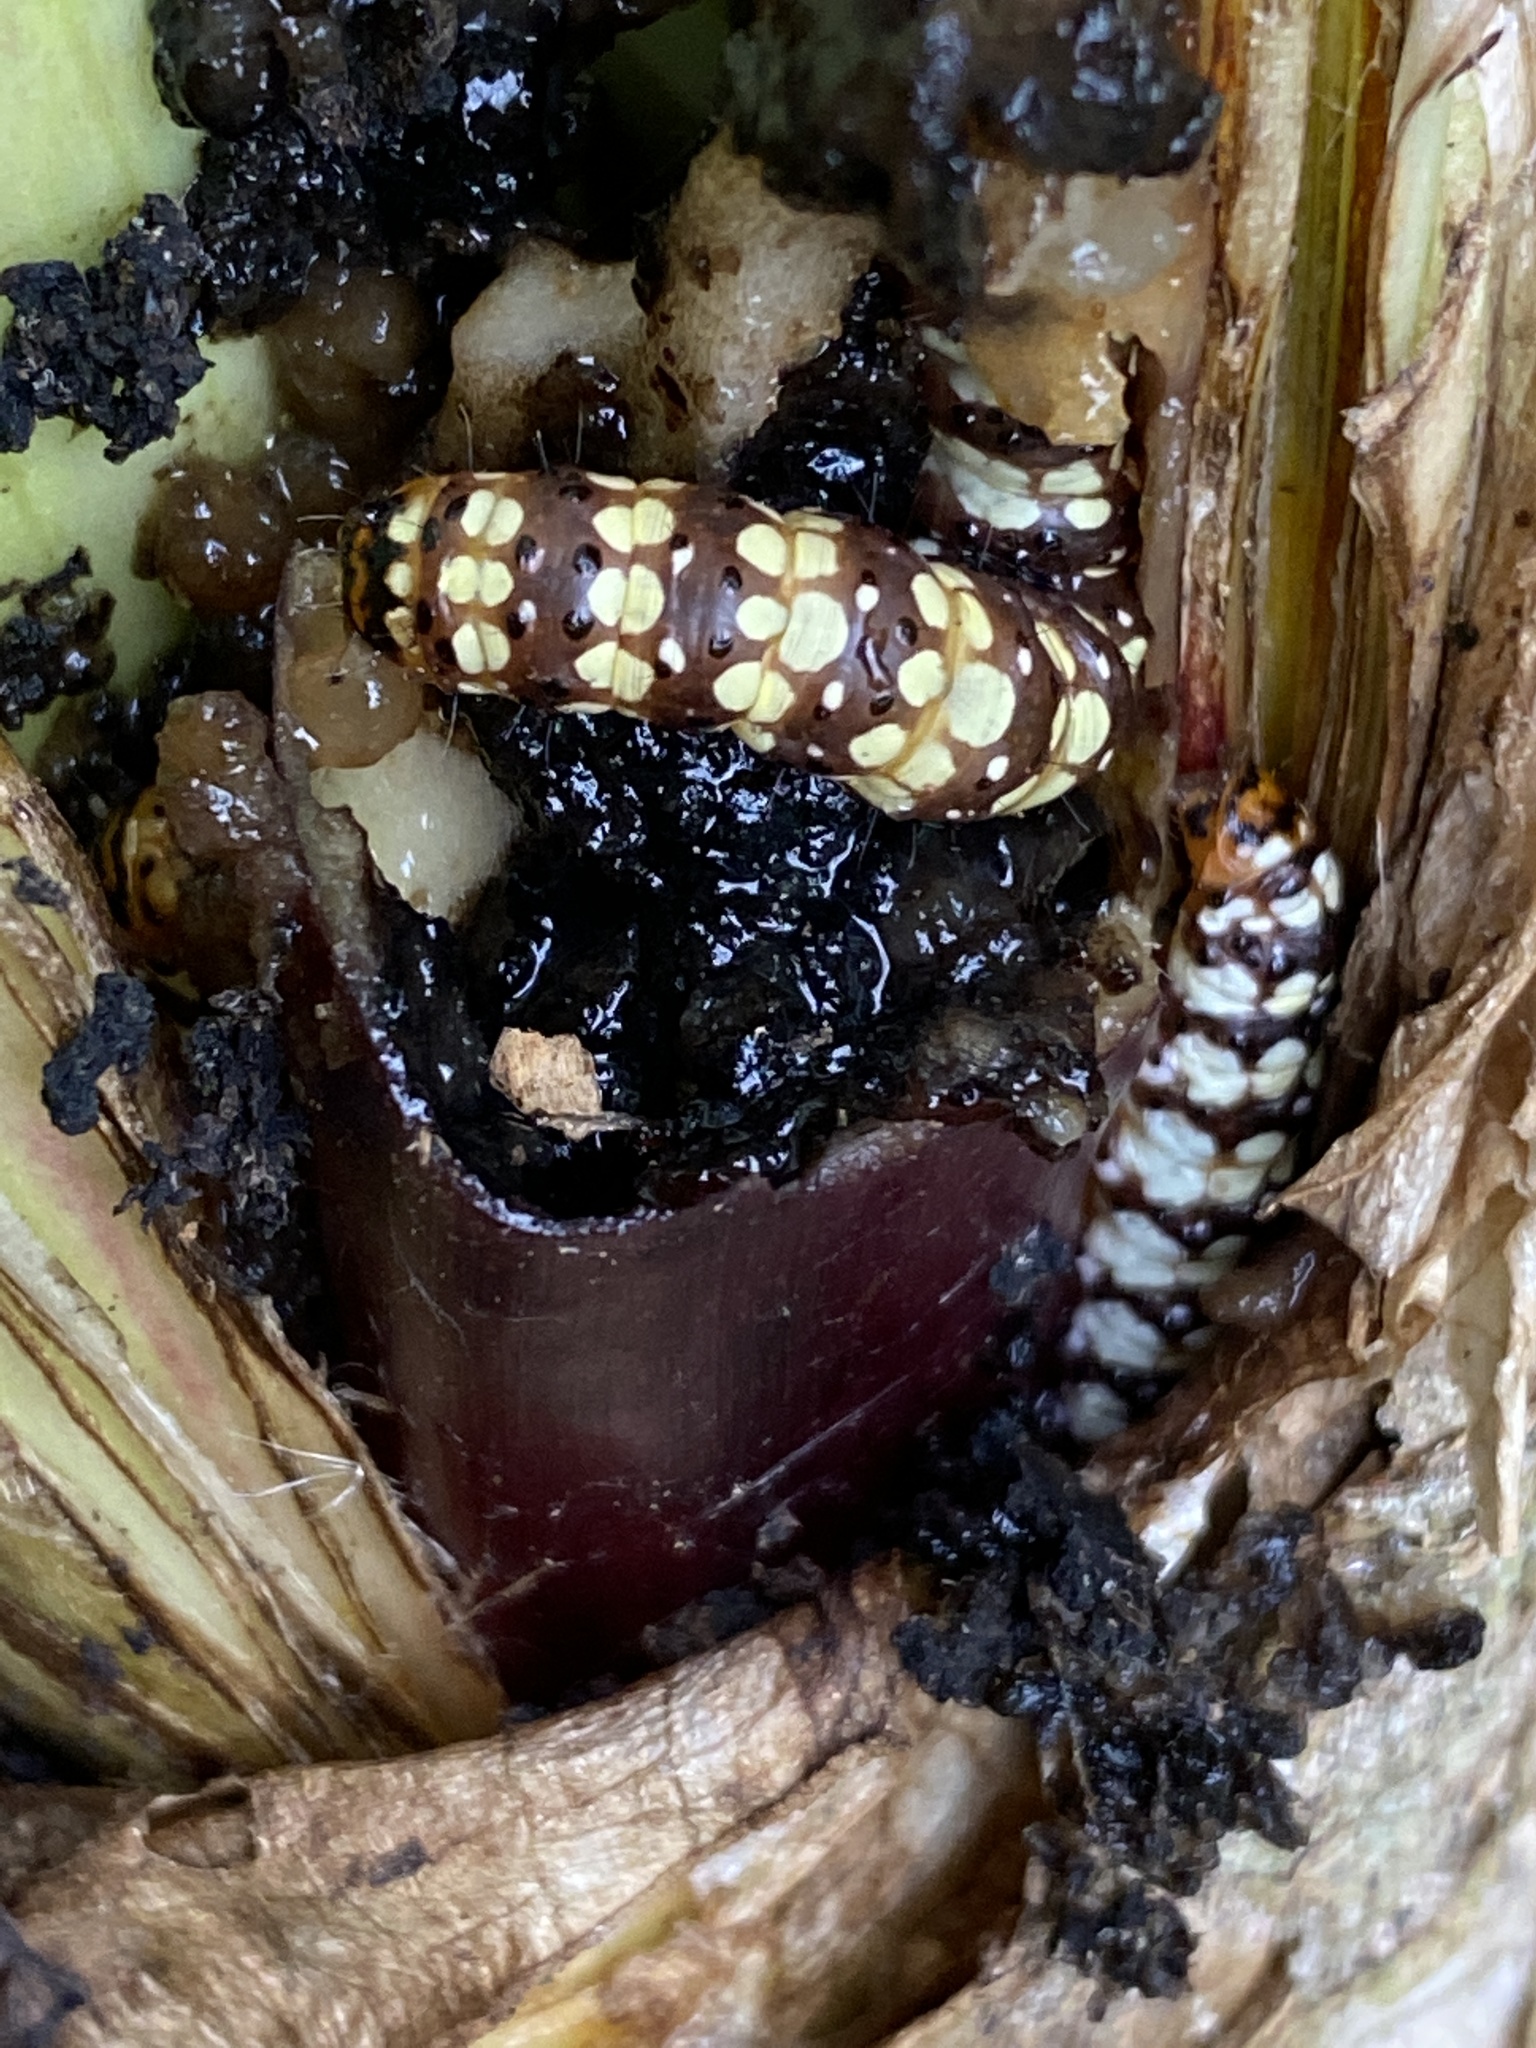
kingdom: Animalia
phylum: Arthropoda
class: Insecta
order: Lepidoptera
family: Noctuidae
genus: Brithys
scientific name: Brithys crini
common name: Kew arches
